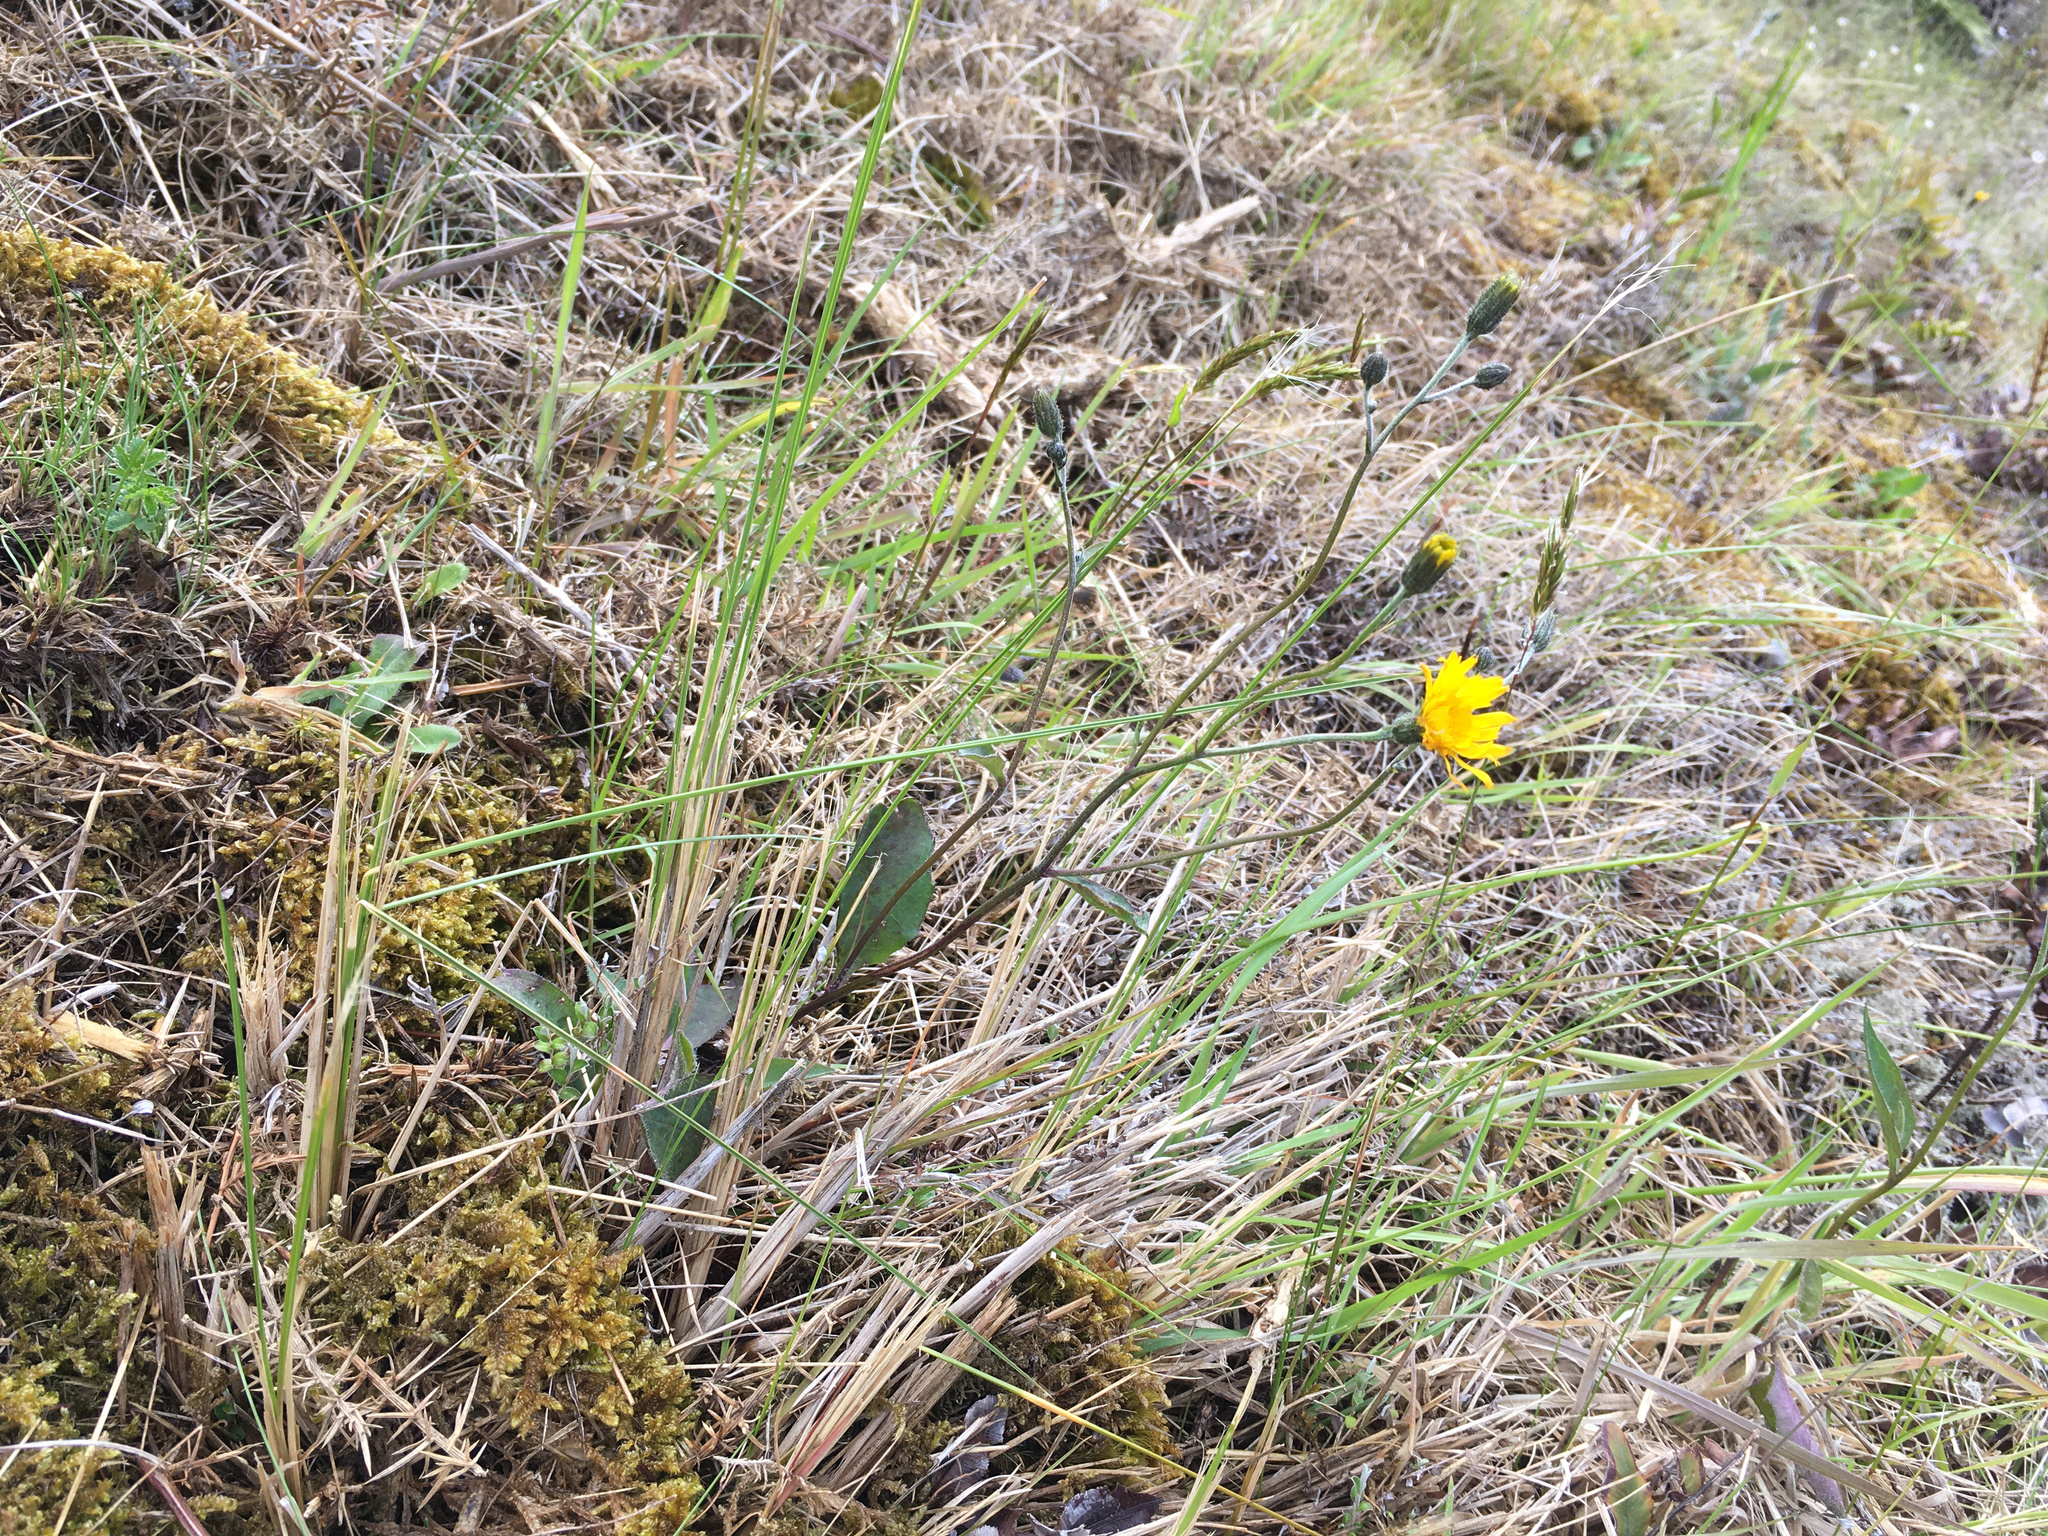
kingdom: Plantae
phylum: Tracheophyta
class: Magnoliopsida
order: Asterales
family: Asteraceae
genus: Hieracium
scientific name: Hieracium lepidulum
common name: Irregular-toothed hawkweed
